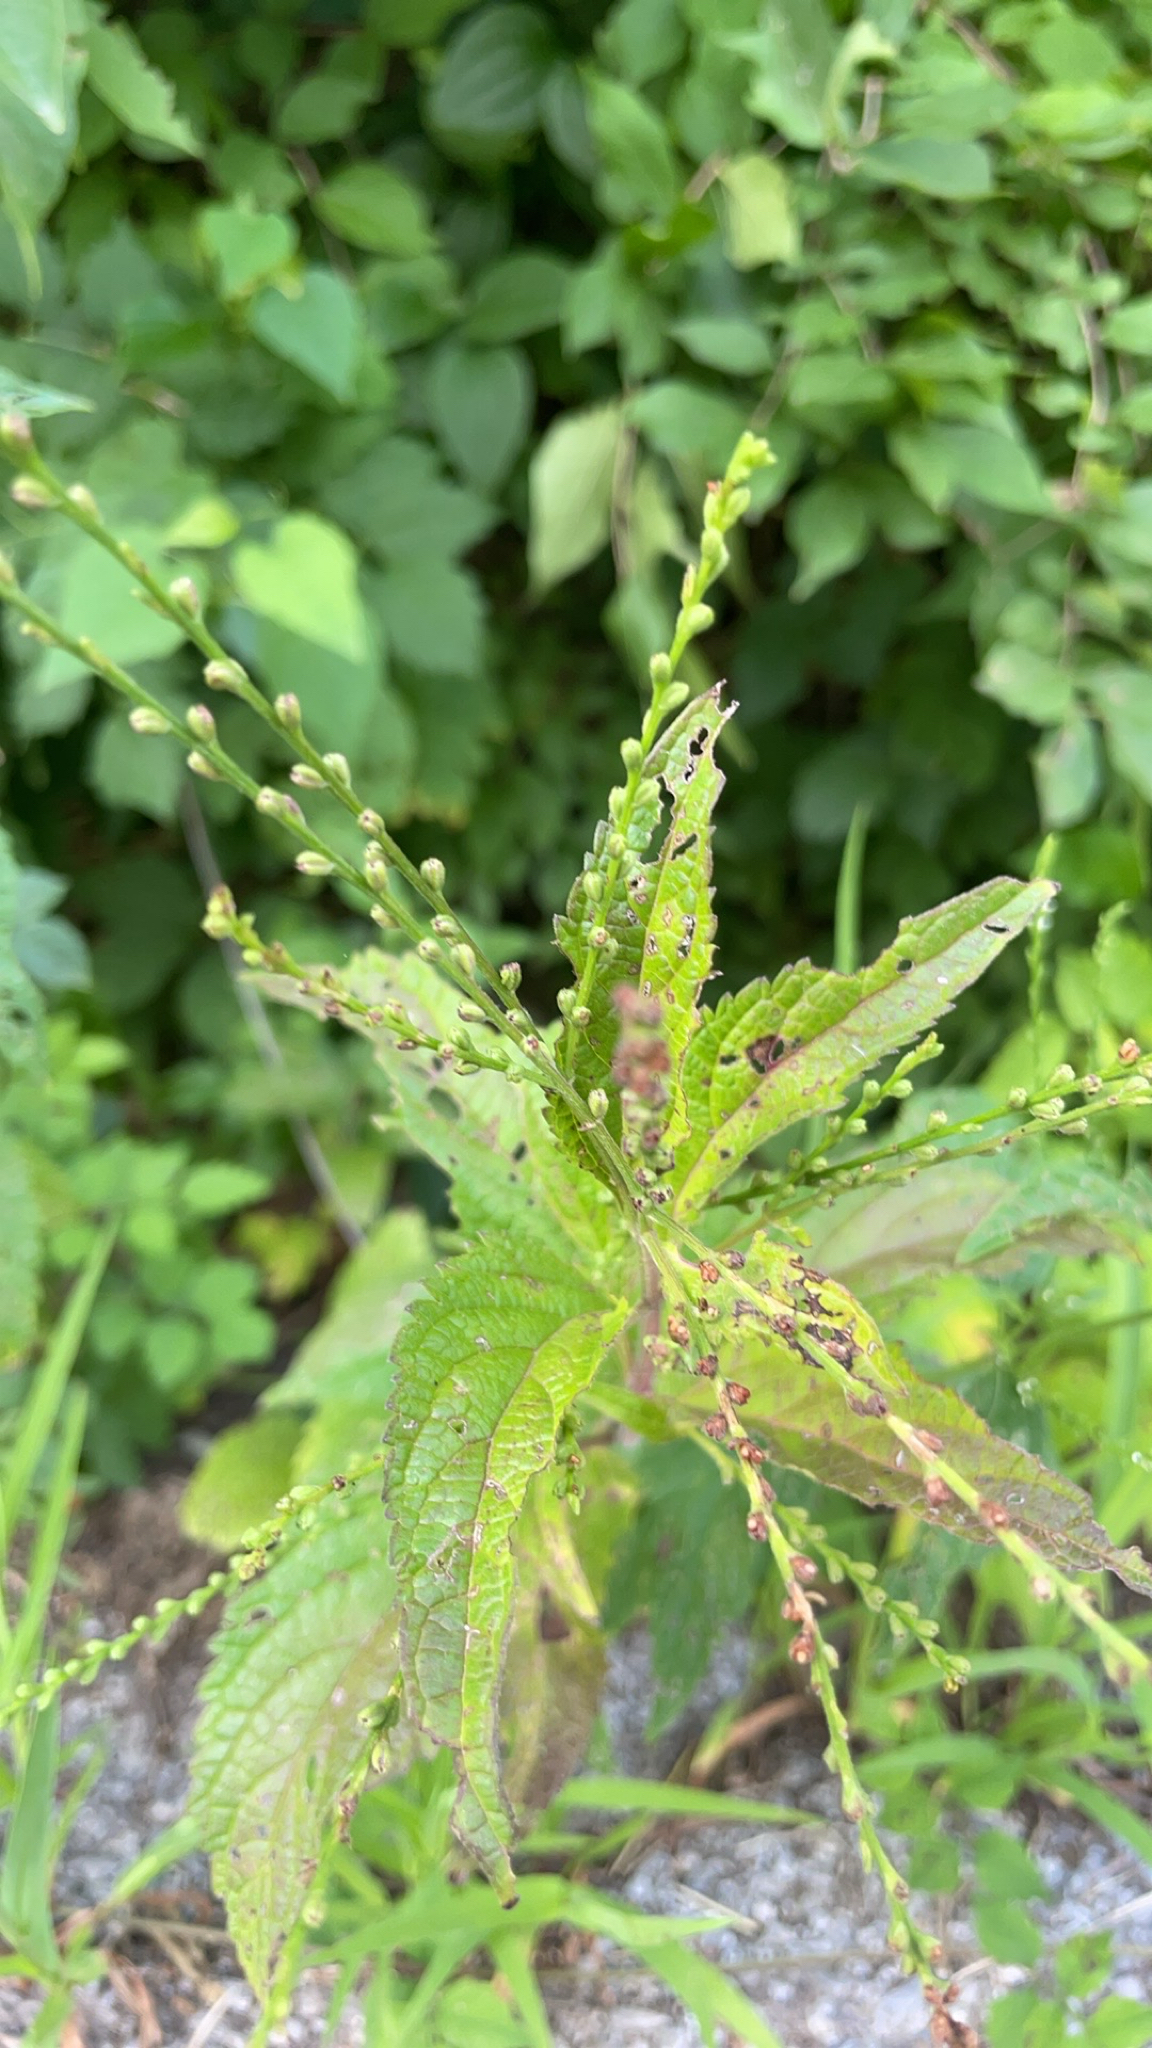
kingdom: Plantae
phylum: Tracheophyta
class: Magnoliopsida
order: Lamiales
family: Verbenaceae
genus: Verbena
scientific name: Verbena urticifolia
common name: Nettle-leaved vervain
